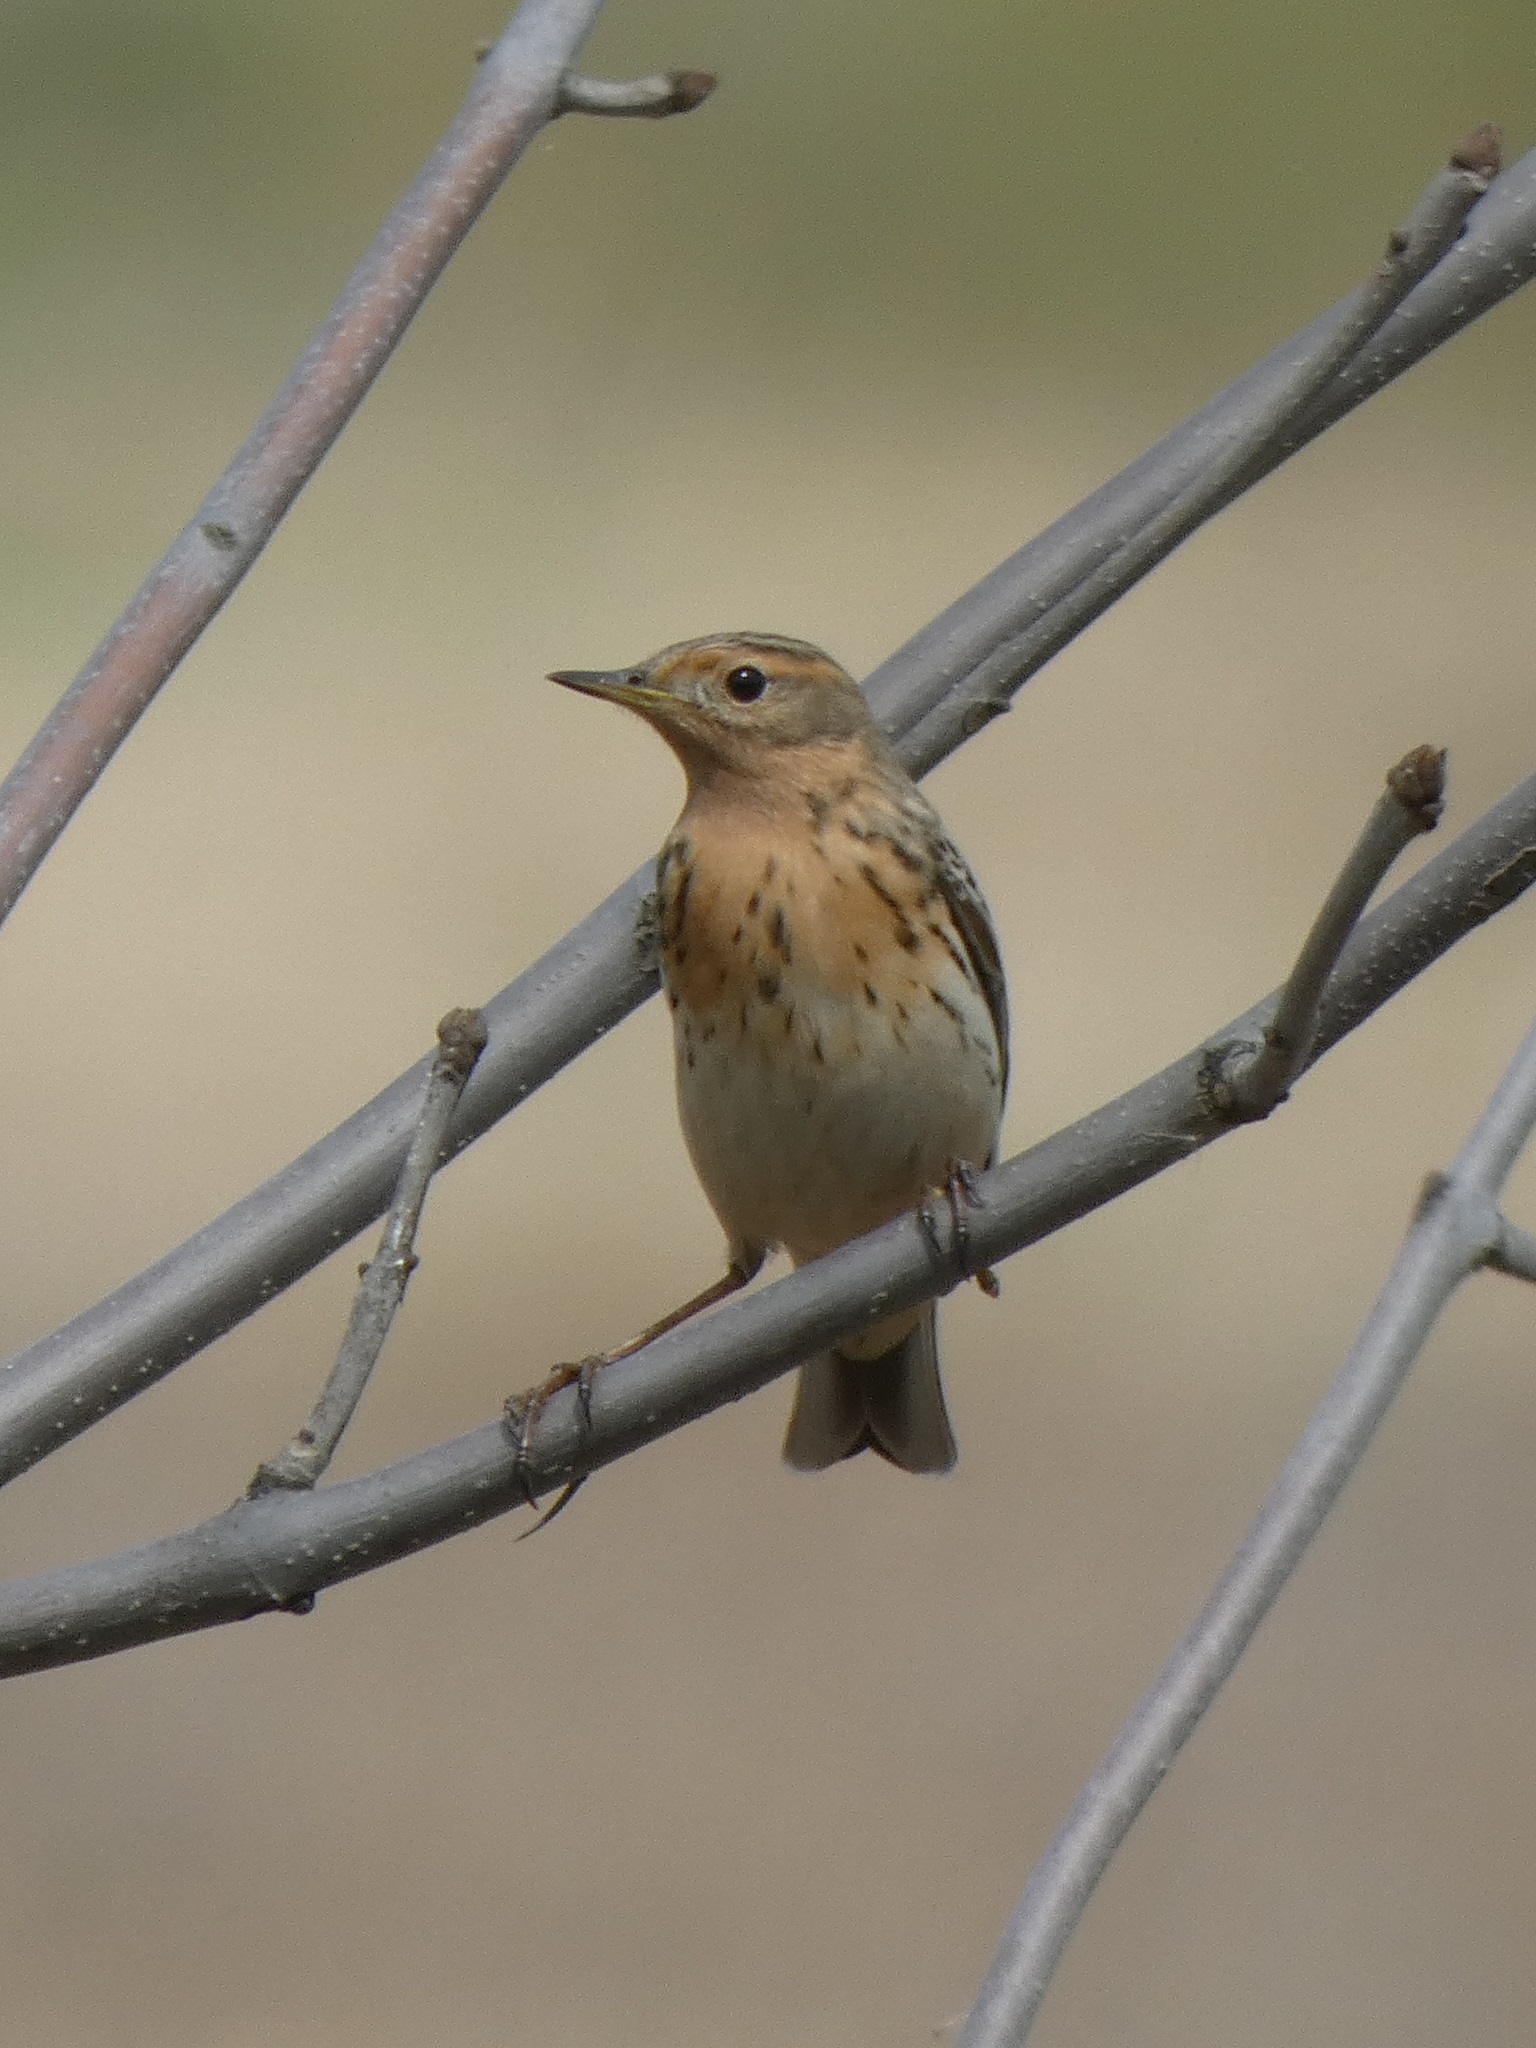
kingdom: Animalia
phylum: Chordata
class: Aves
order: Passeriformes
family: Motacillidae
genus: Anthus
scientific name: Anthus cervinus
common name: Red-throated pipit
